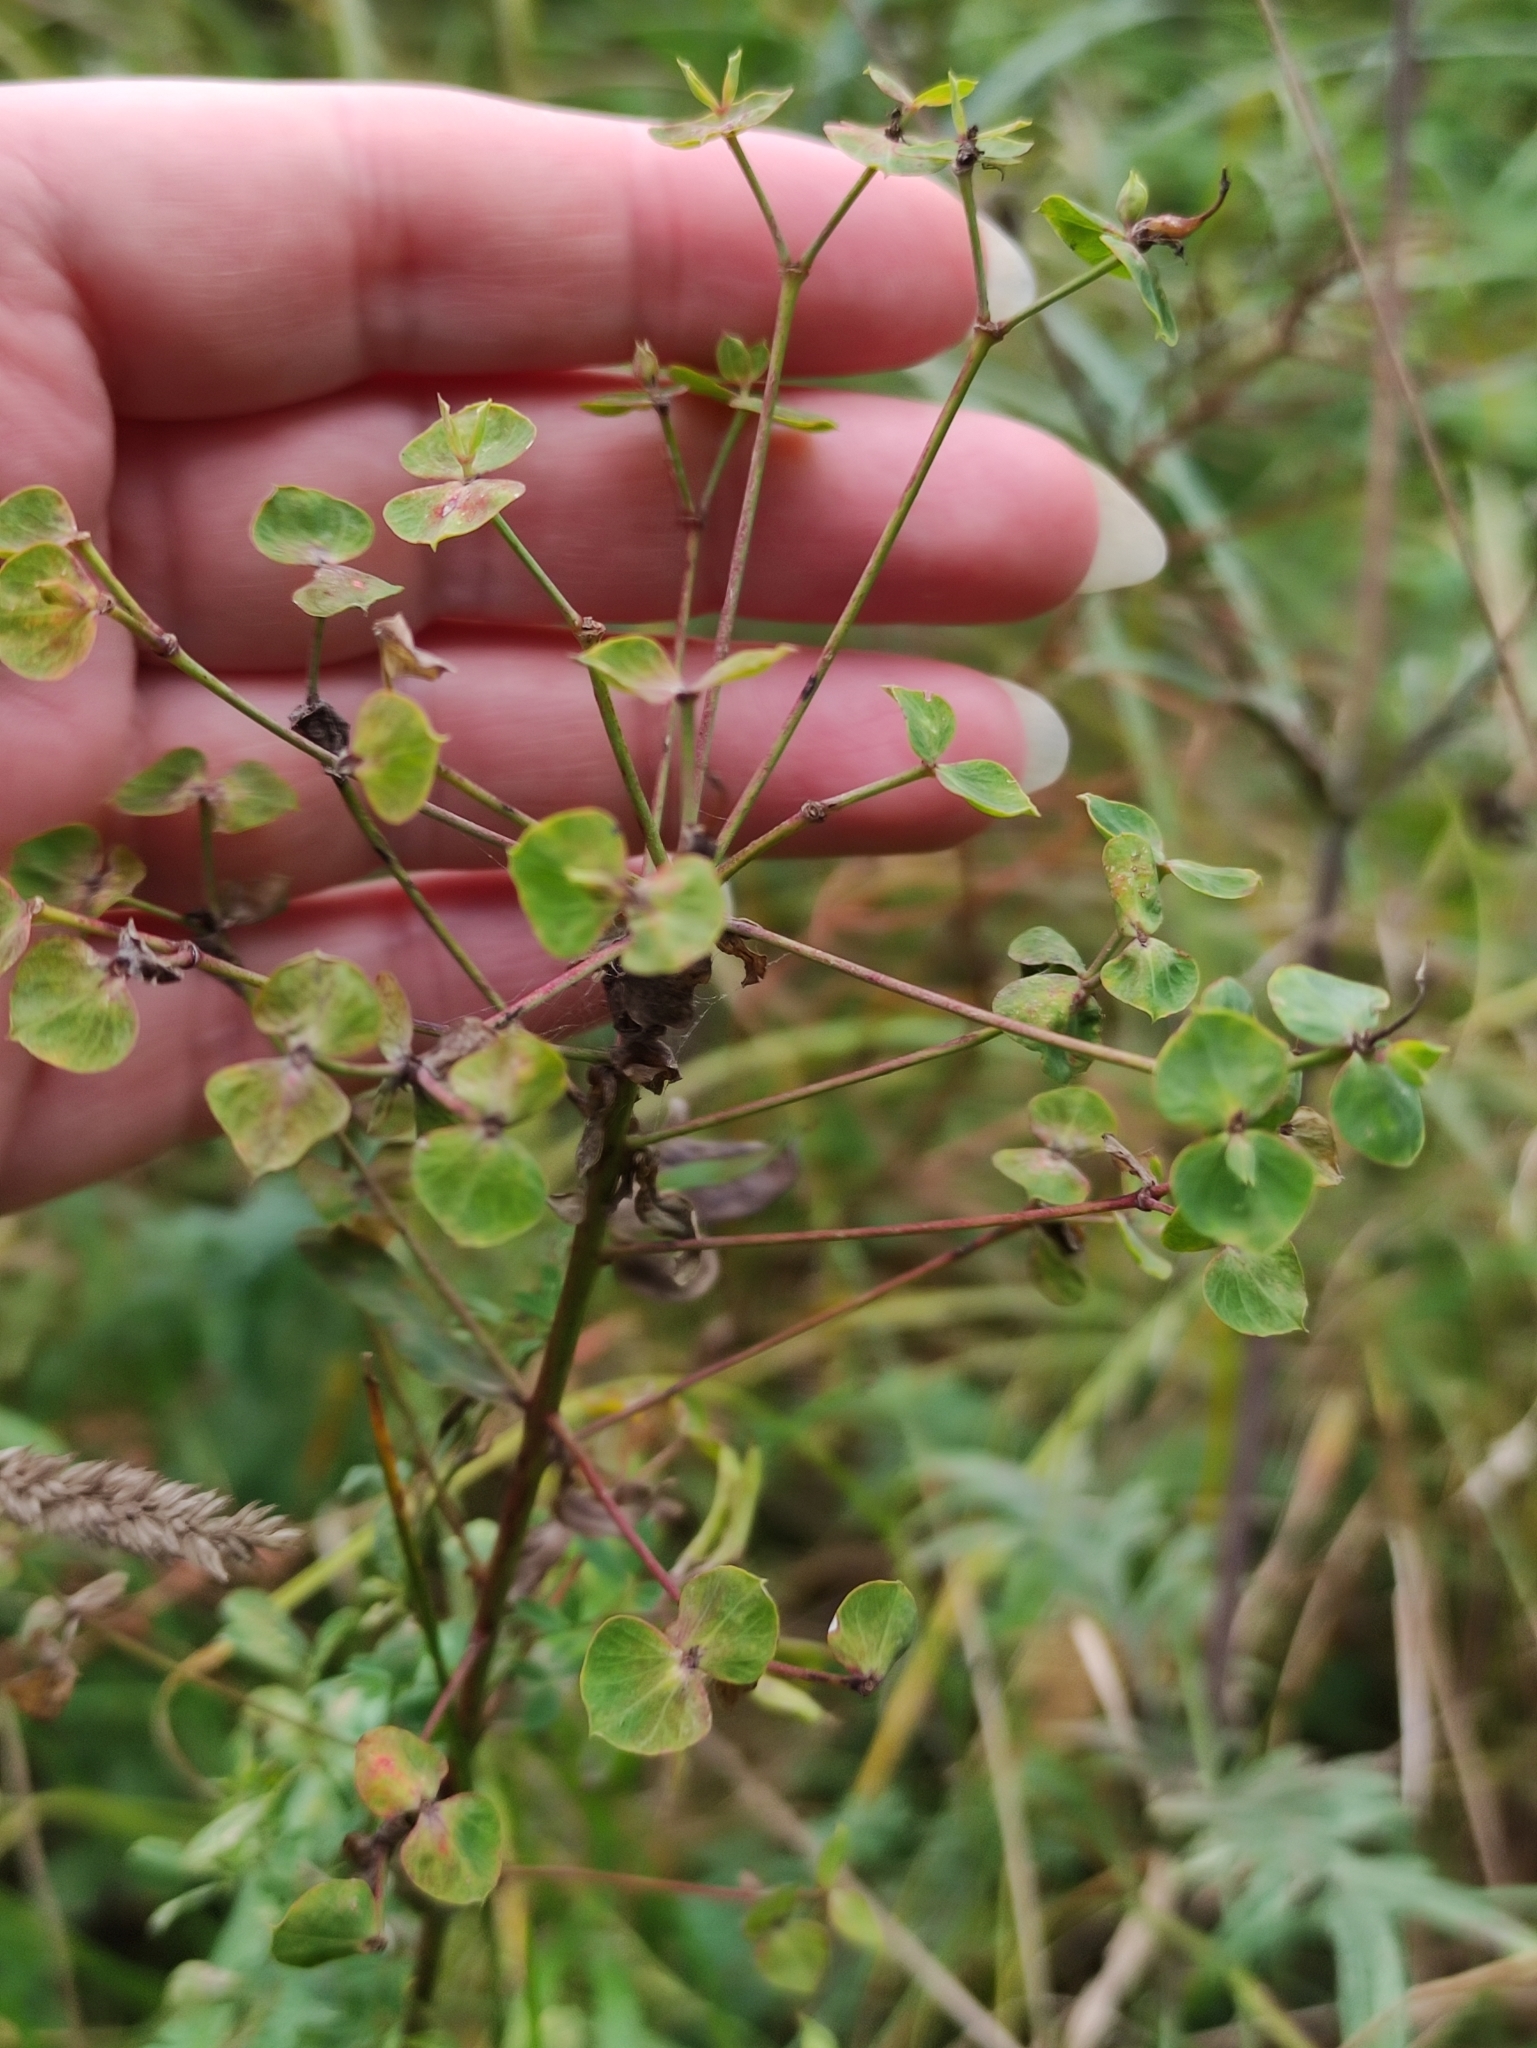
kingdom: Plantae
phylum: Tracheophyta
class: Magnoliopsida
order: Malpighiales
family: Euphorbiaceae
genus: Euphorbia
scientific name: Euphorbia virgata
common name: Leafy spurge
